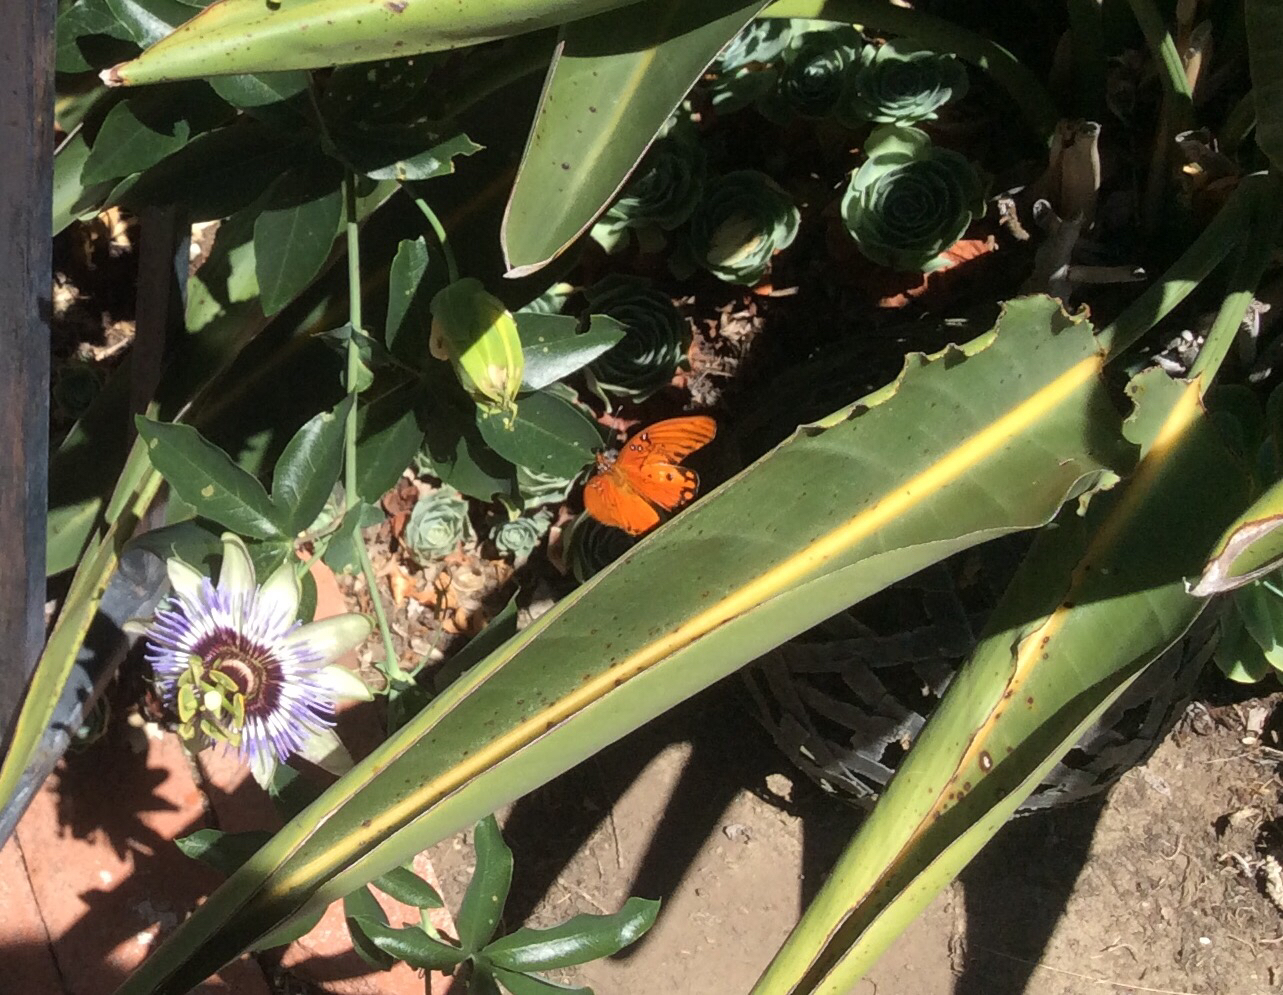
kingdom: Animalia
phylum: Arthropoda
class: Insecta
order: Lepidoptera
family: Nymphalidae
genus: Dione
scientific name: Dione vanillae
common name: Gulf fritillary
